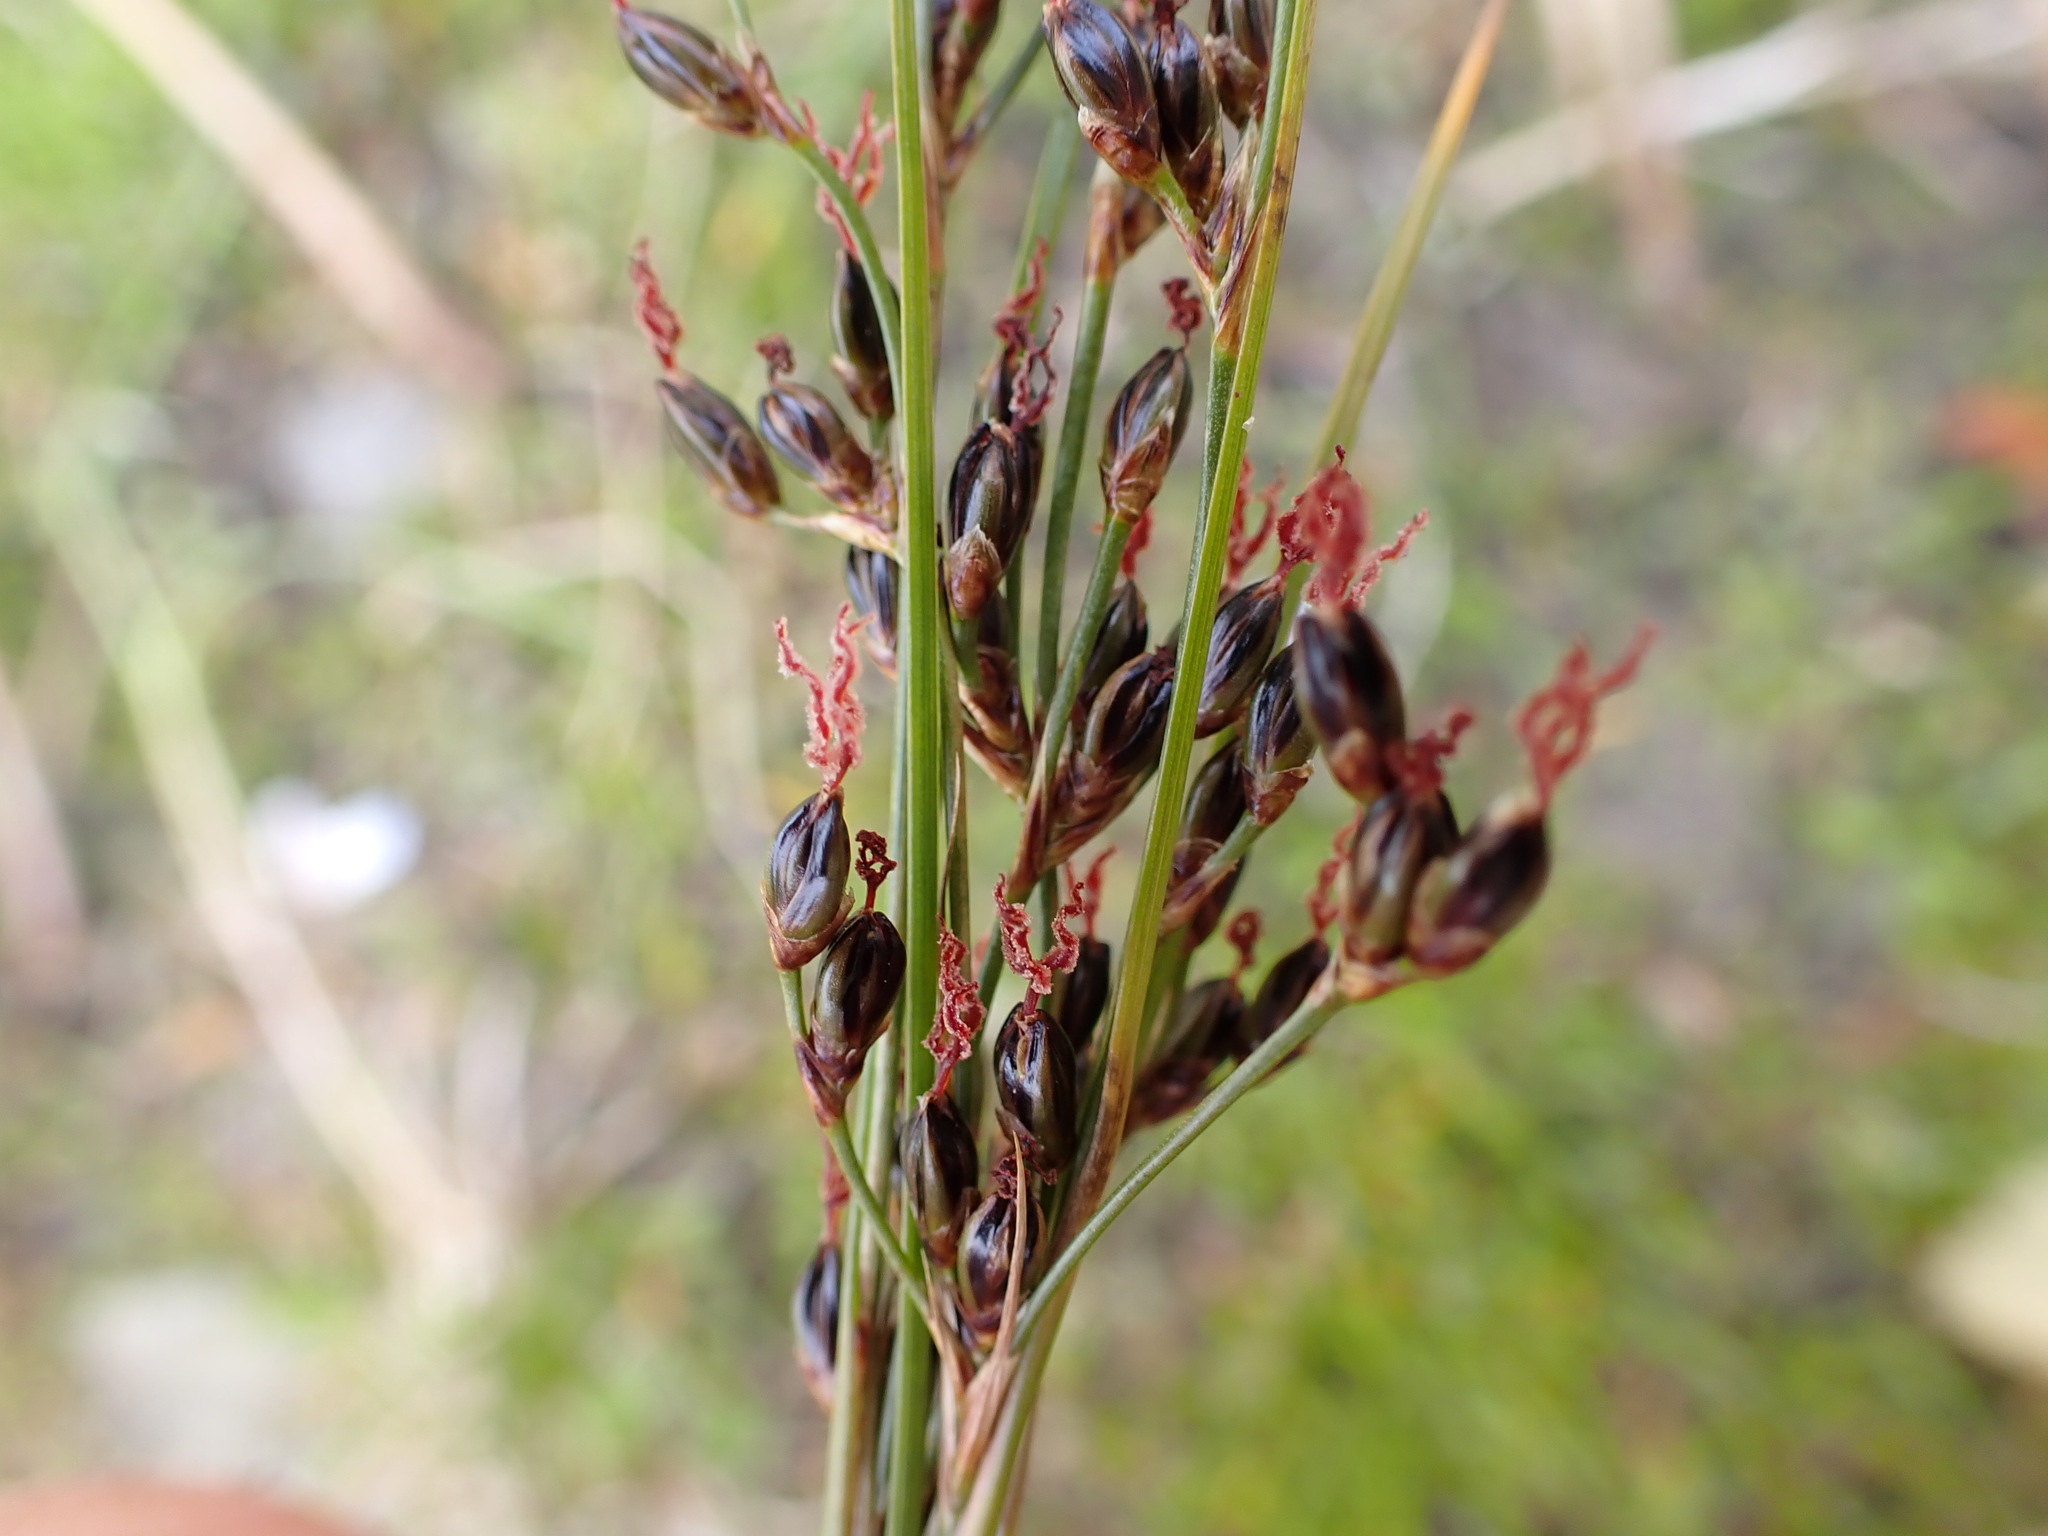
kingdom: Plantae
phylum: Tracheophyta
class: Liliopsida
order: Poales
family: Juncaceae
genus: Juncus
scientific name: Juncus gerardi
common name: Saltmarsh rush
